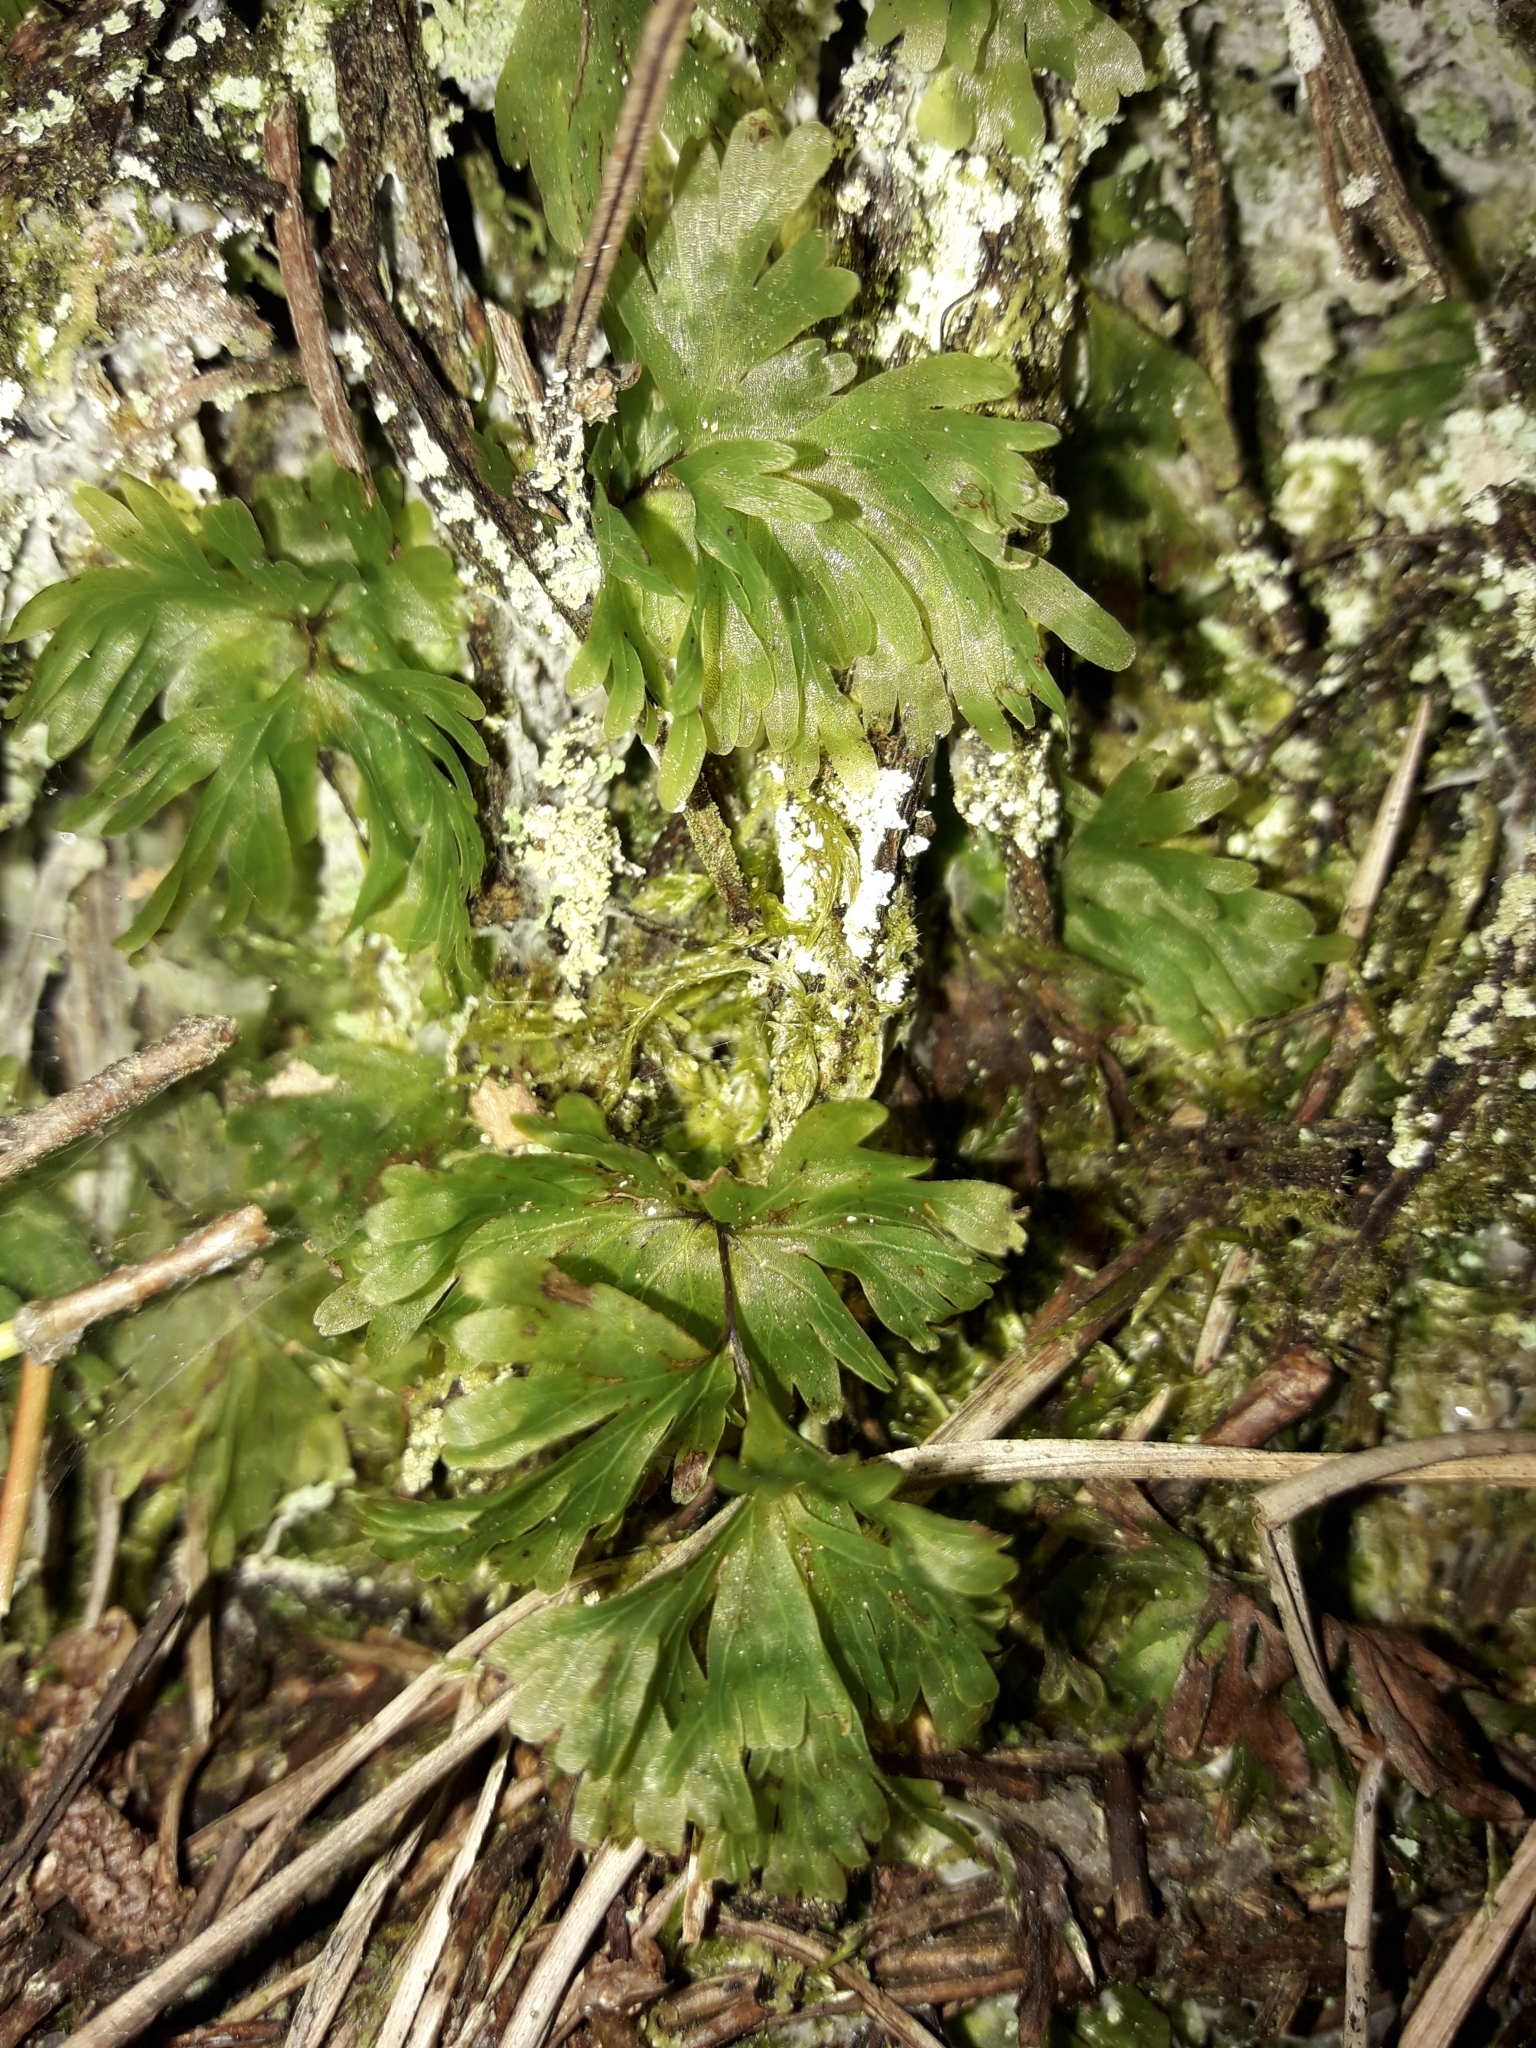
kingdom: Plantae
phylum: Tracheophyta
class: Polypodiopsida
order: Hymenophyllales
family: Hymenophyllaceae
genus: Hymenophyllum
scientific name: Hymenophyllum flabellatum
